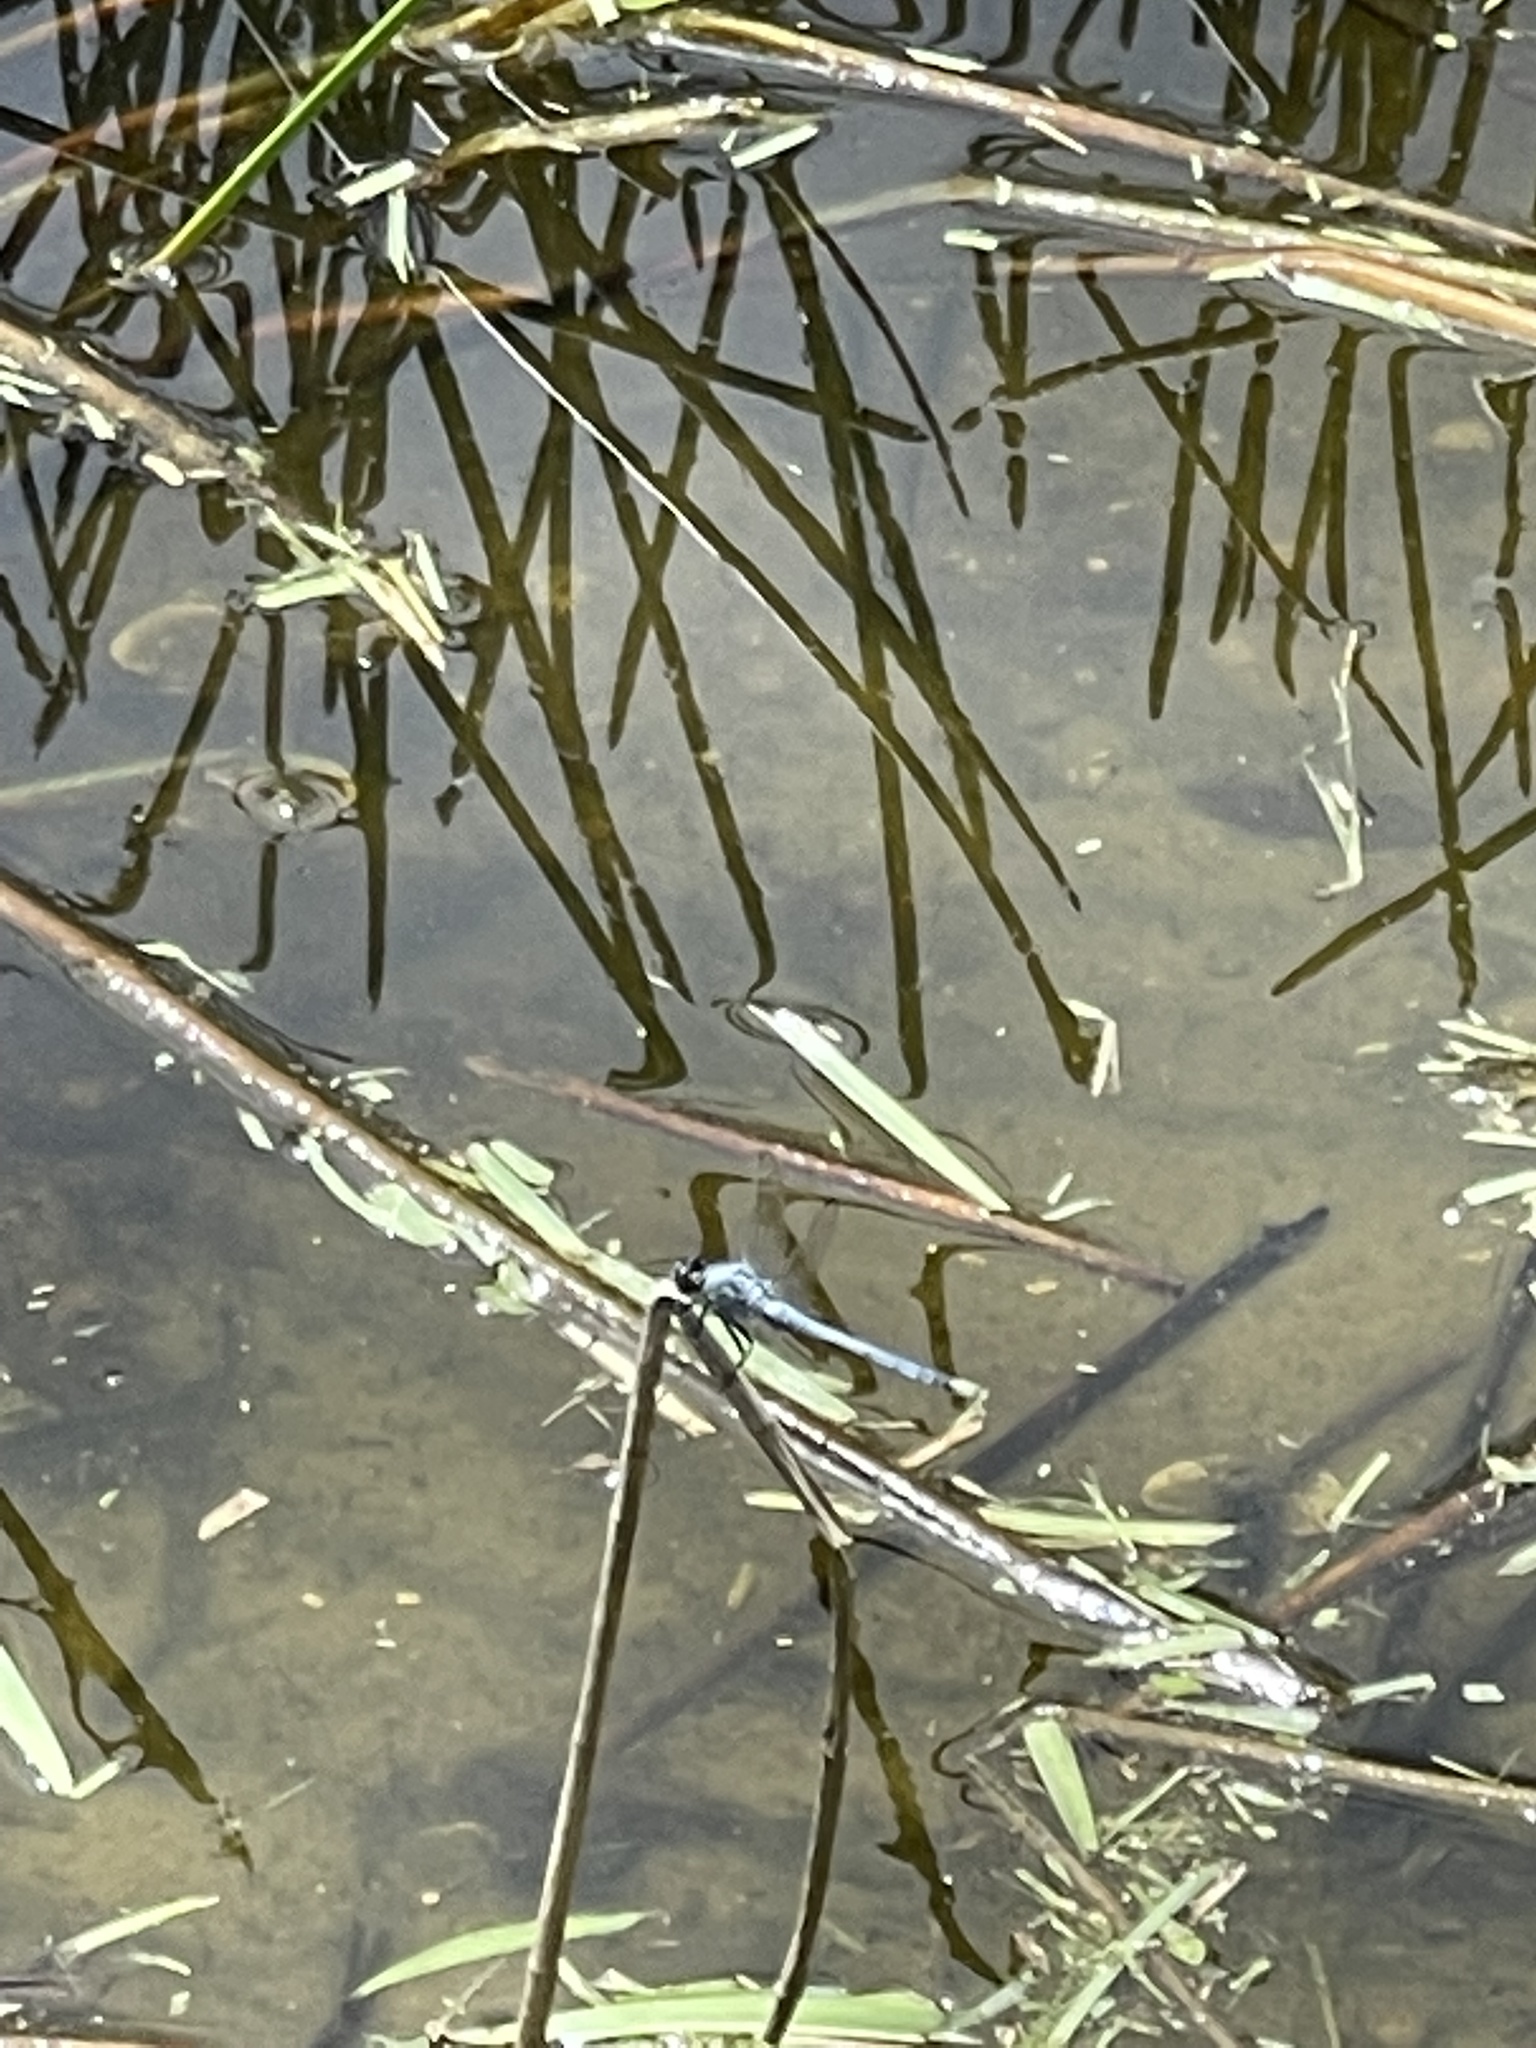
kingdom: Animalia
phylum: Arthropoda
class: Insecta
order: Odonata
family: Libellulidae
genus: Erythemis
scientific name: Erythemis simplicicollis
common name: Eastern pondhawk
